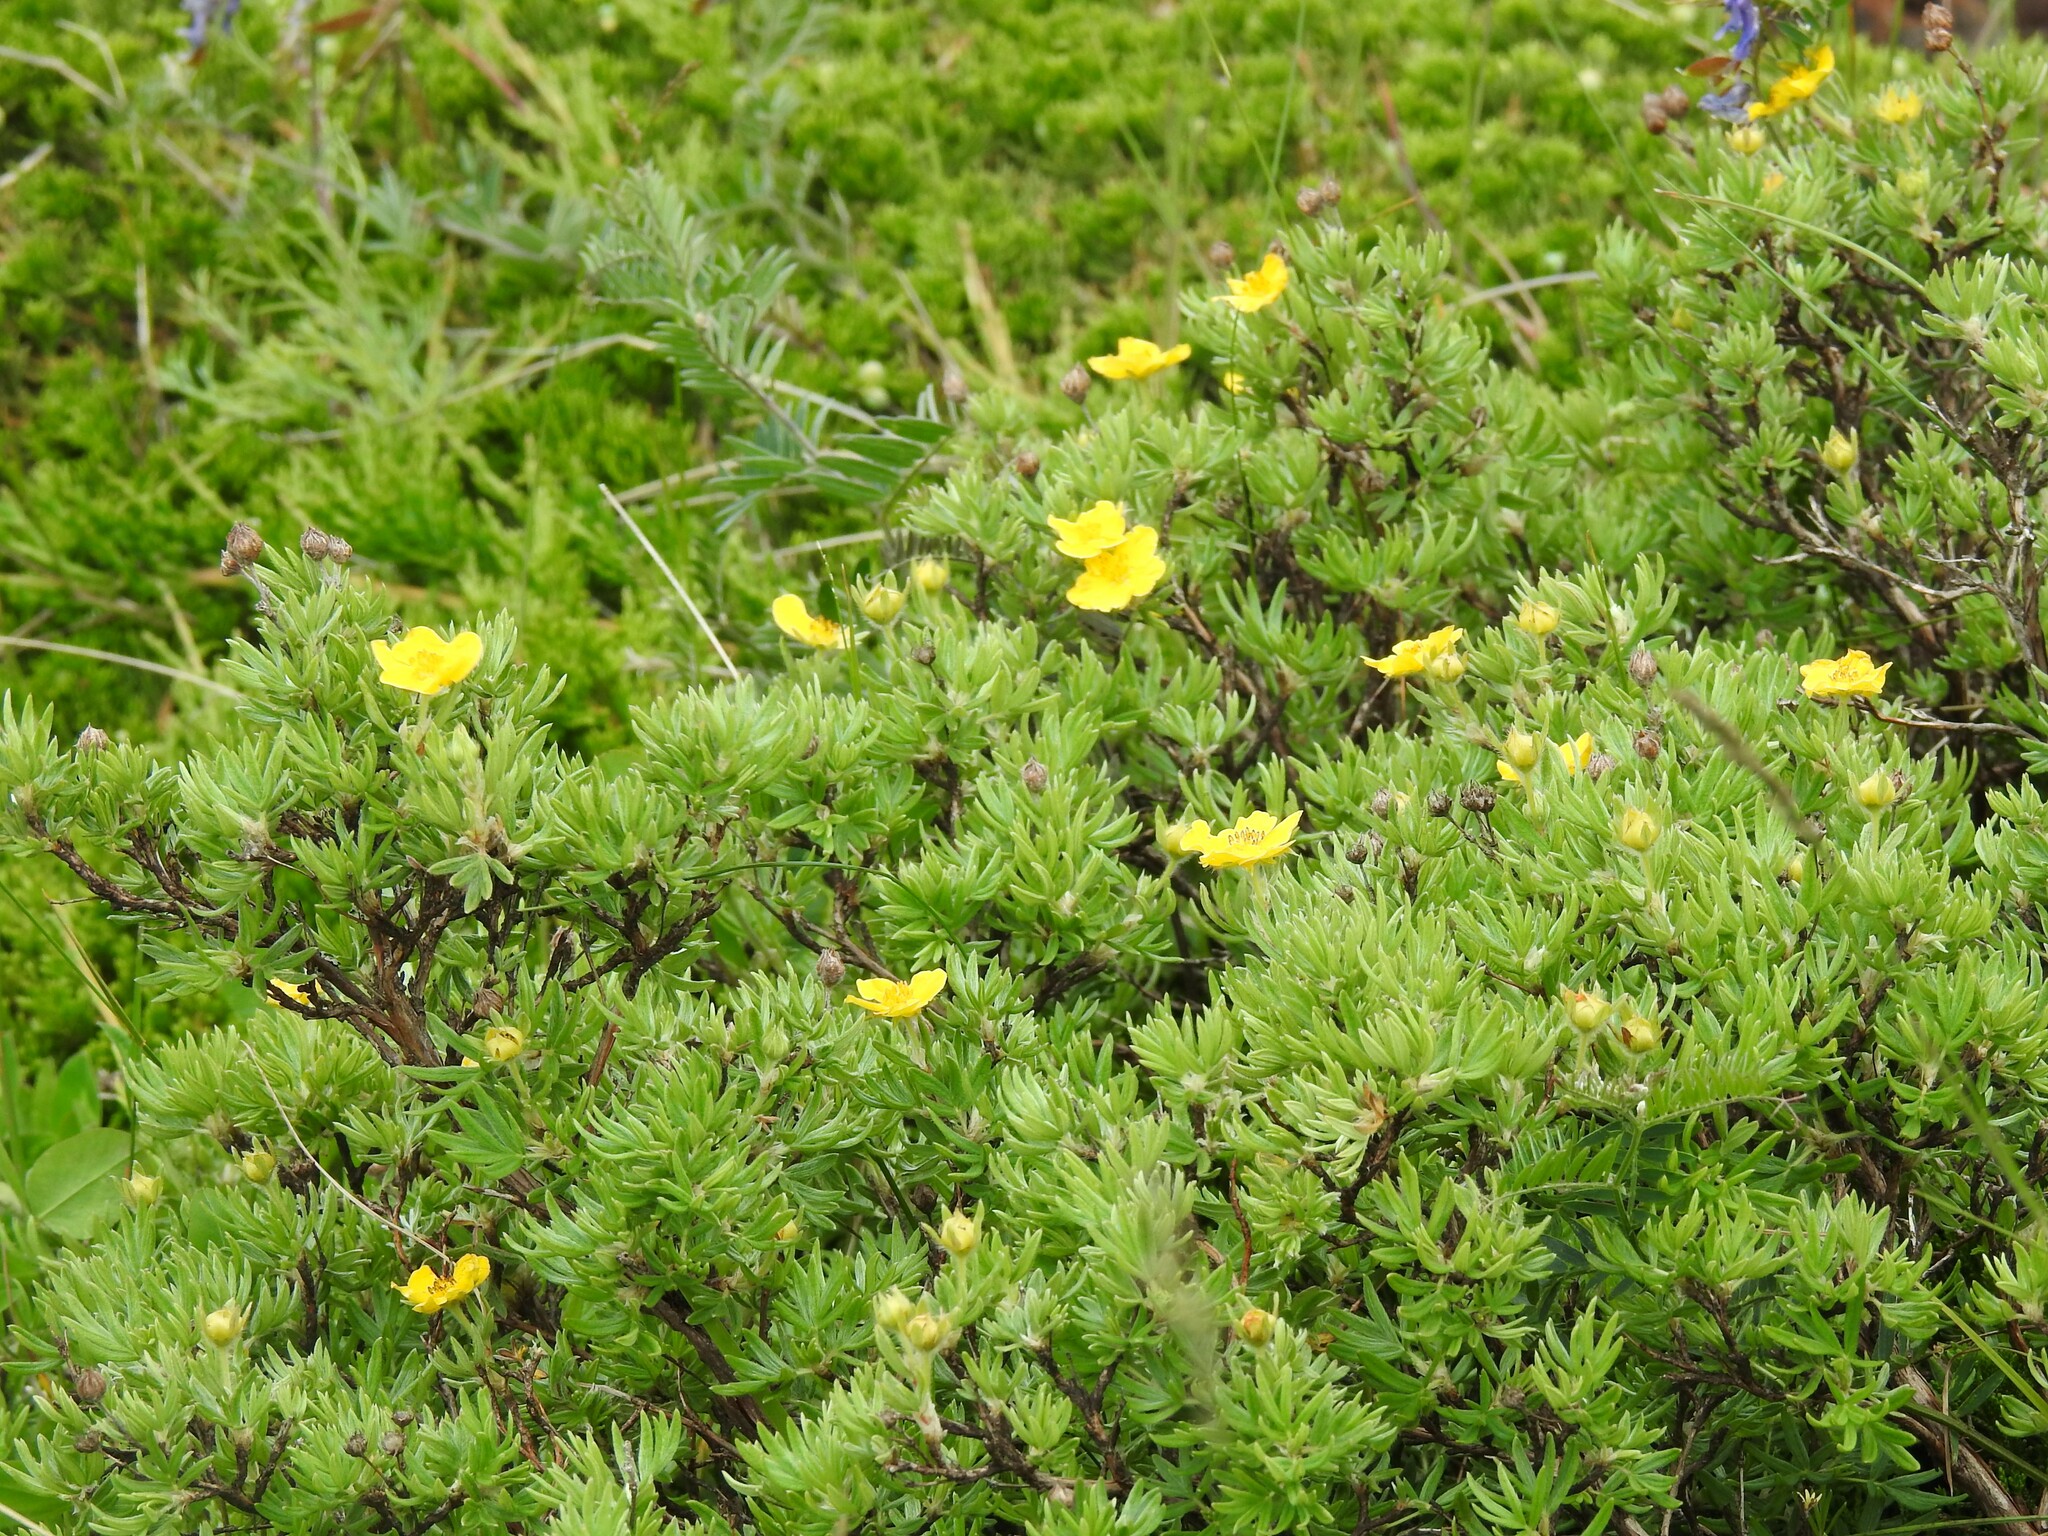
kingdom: Plantae
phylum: Tracheophyta
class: Magnoliopsida
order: Rosales
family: Rosaceae
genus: Dasiphora
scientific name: Dasiphora fruticosa
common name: Shrubby cinquefoil
